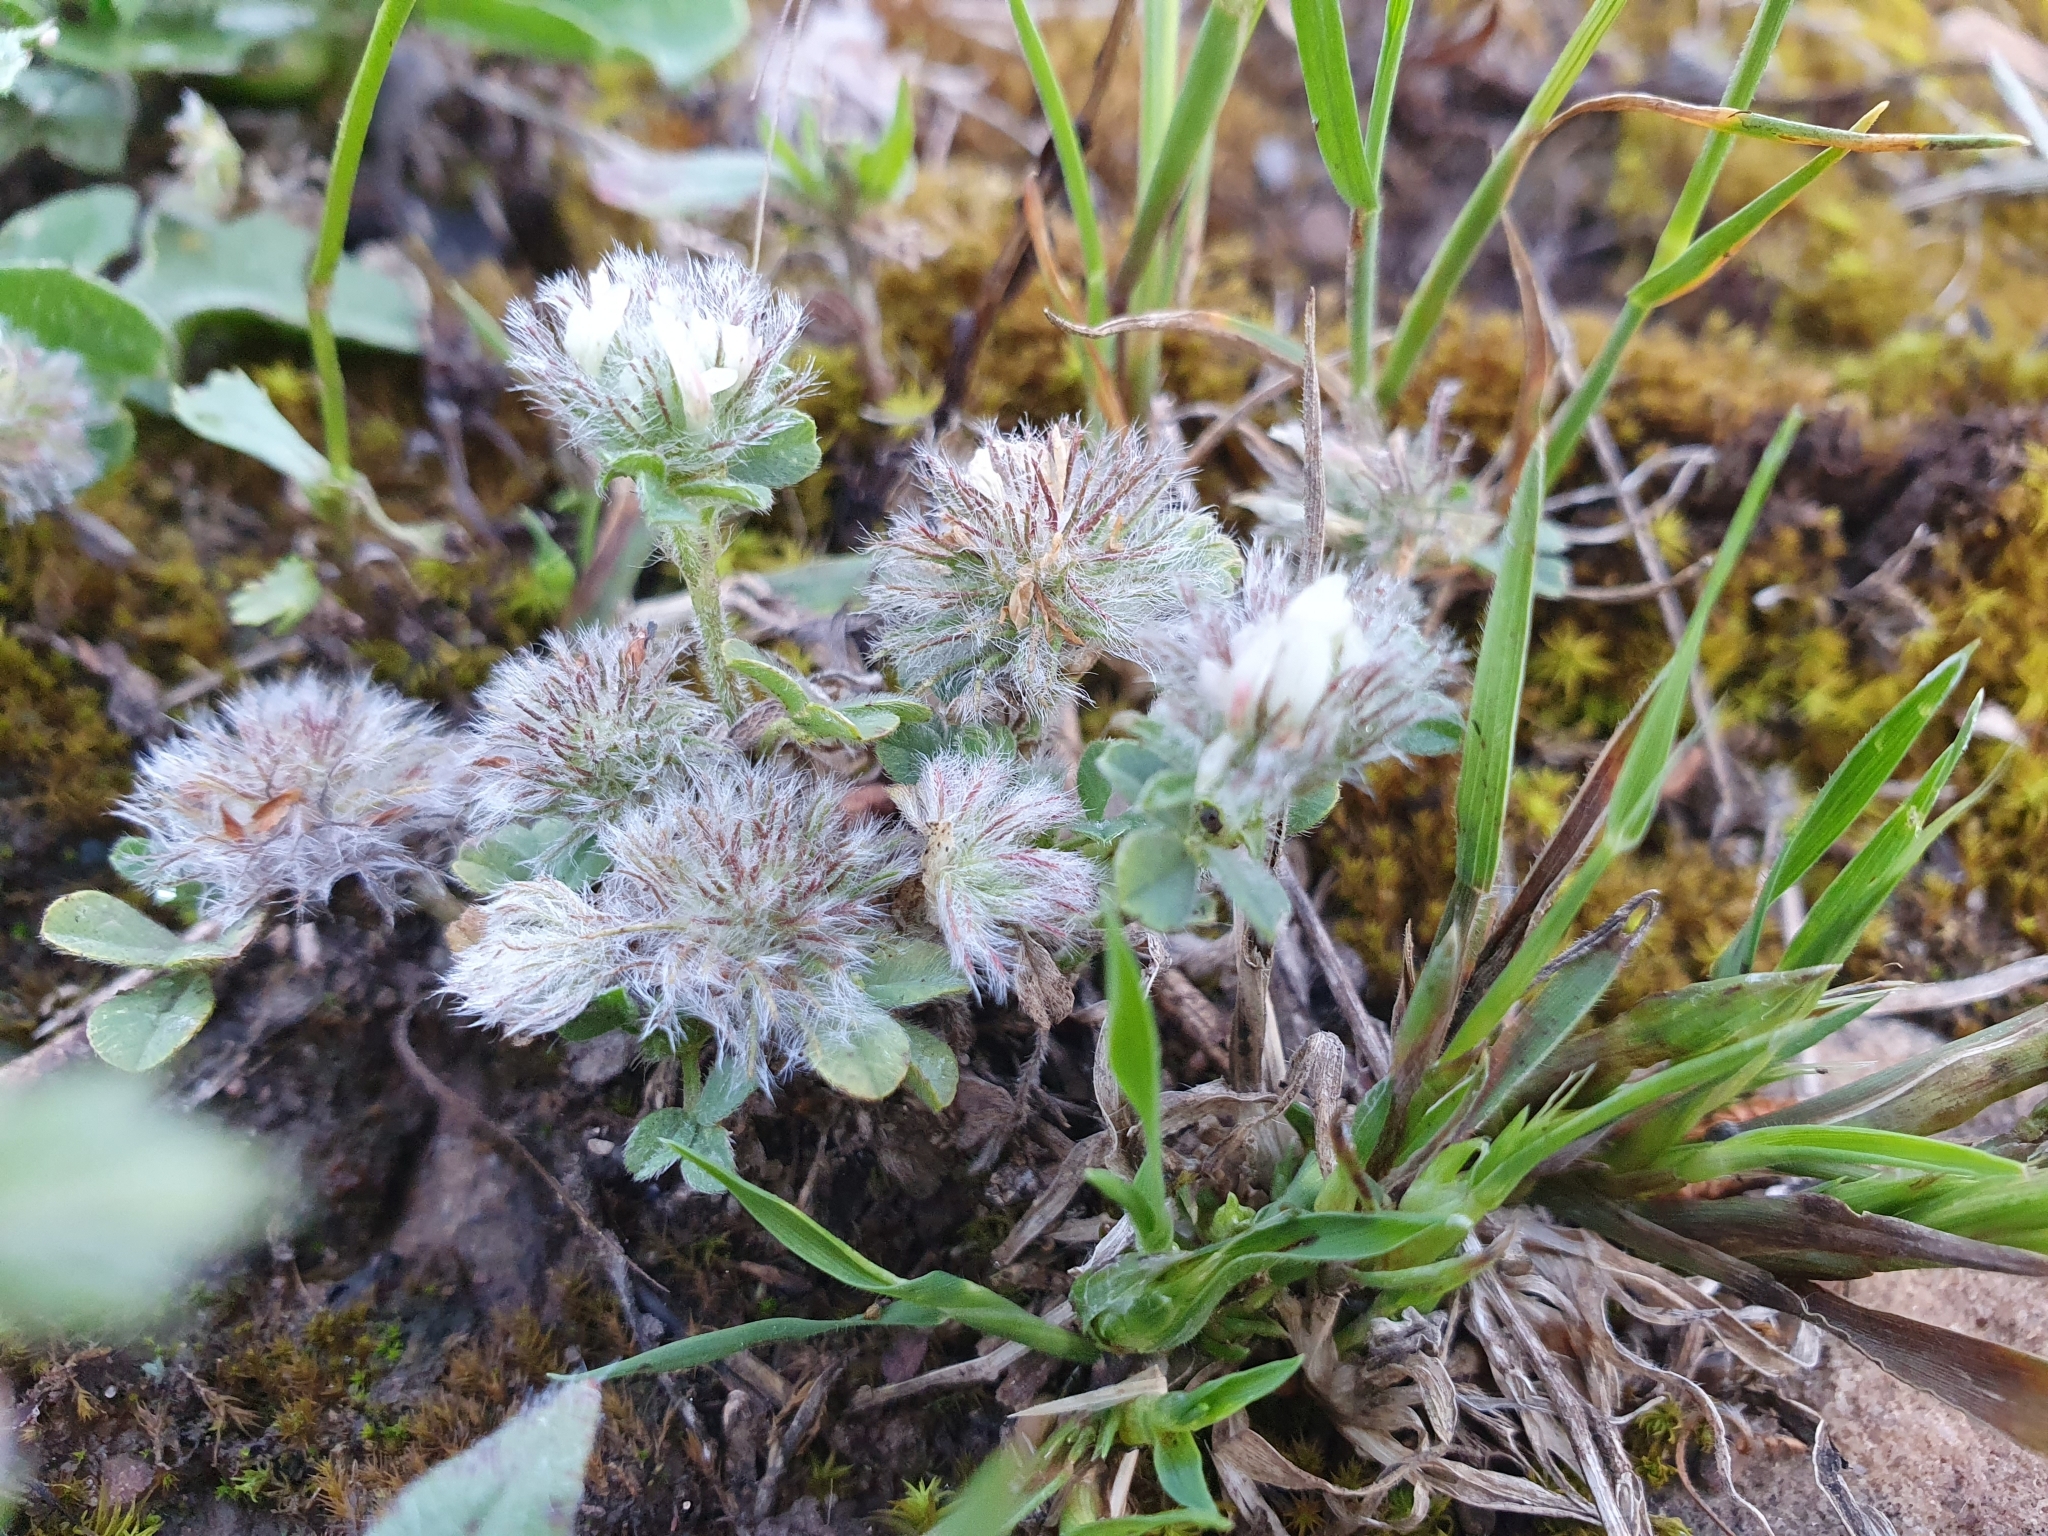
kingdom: Plantae
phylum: Tracheophyta
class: Magnoliopsida
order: Fabales
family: Fabaceae
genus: Trifolium
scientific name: Trifolium cherleri
